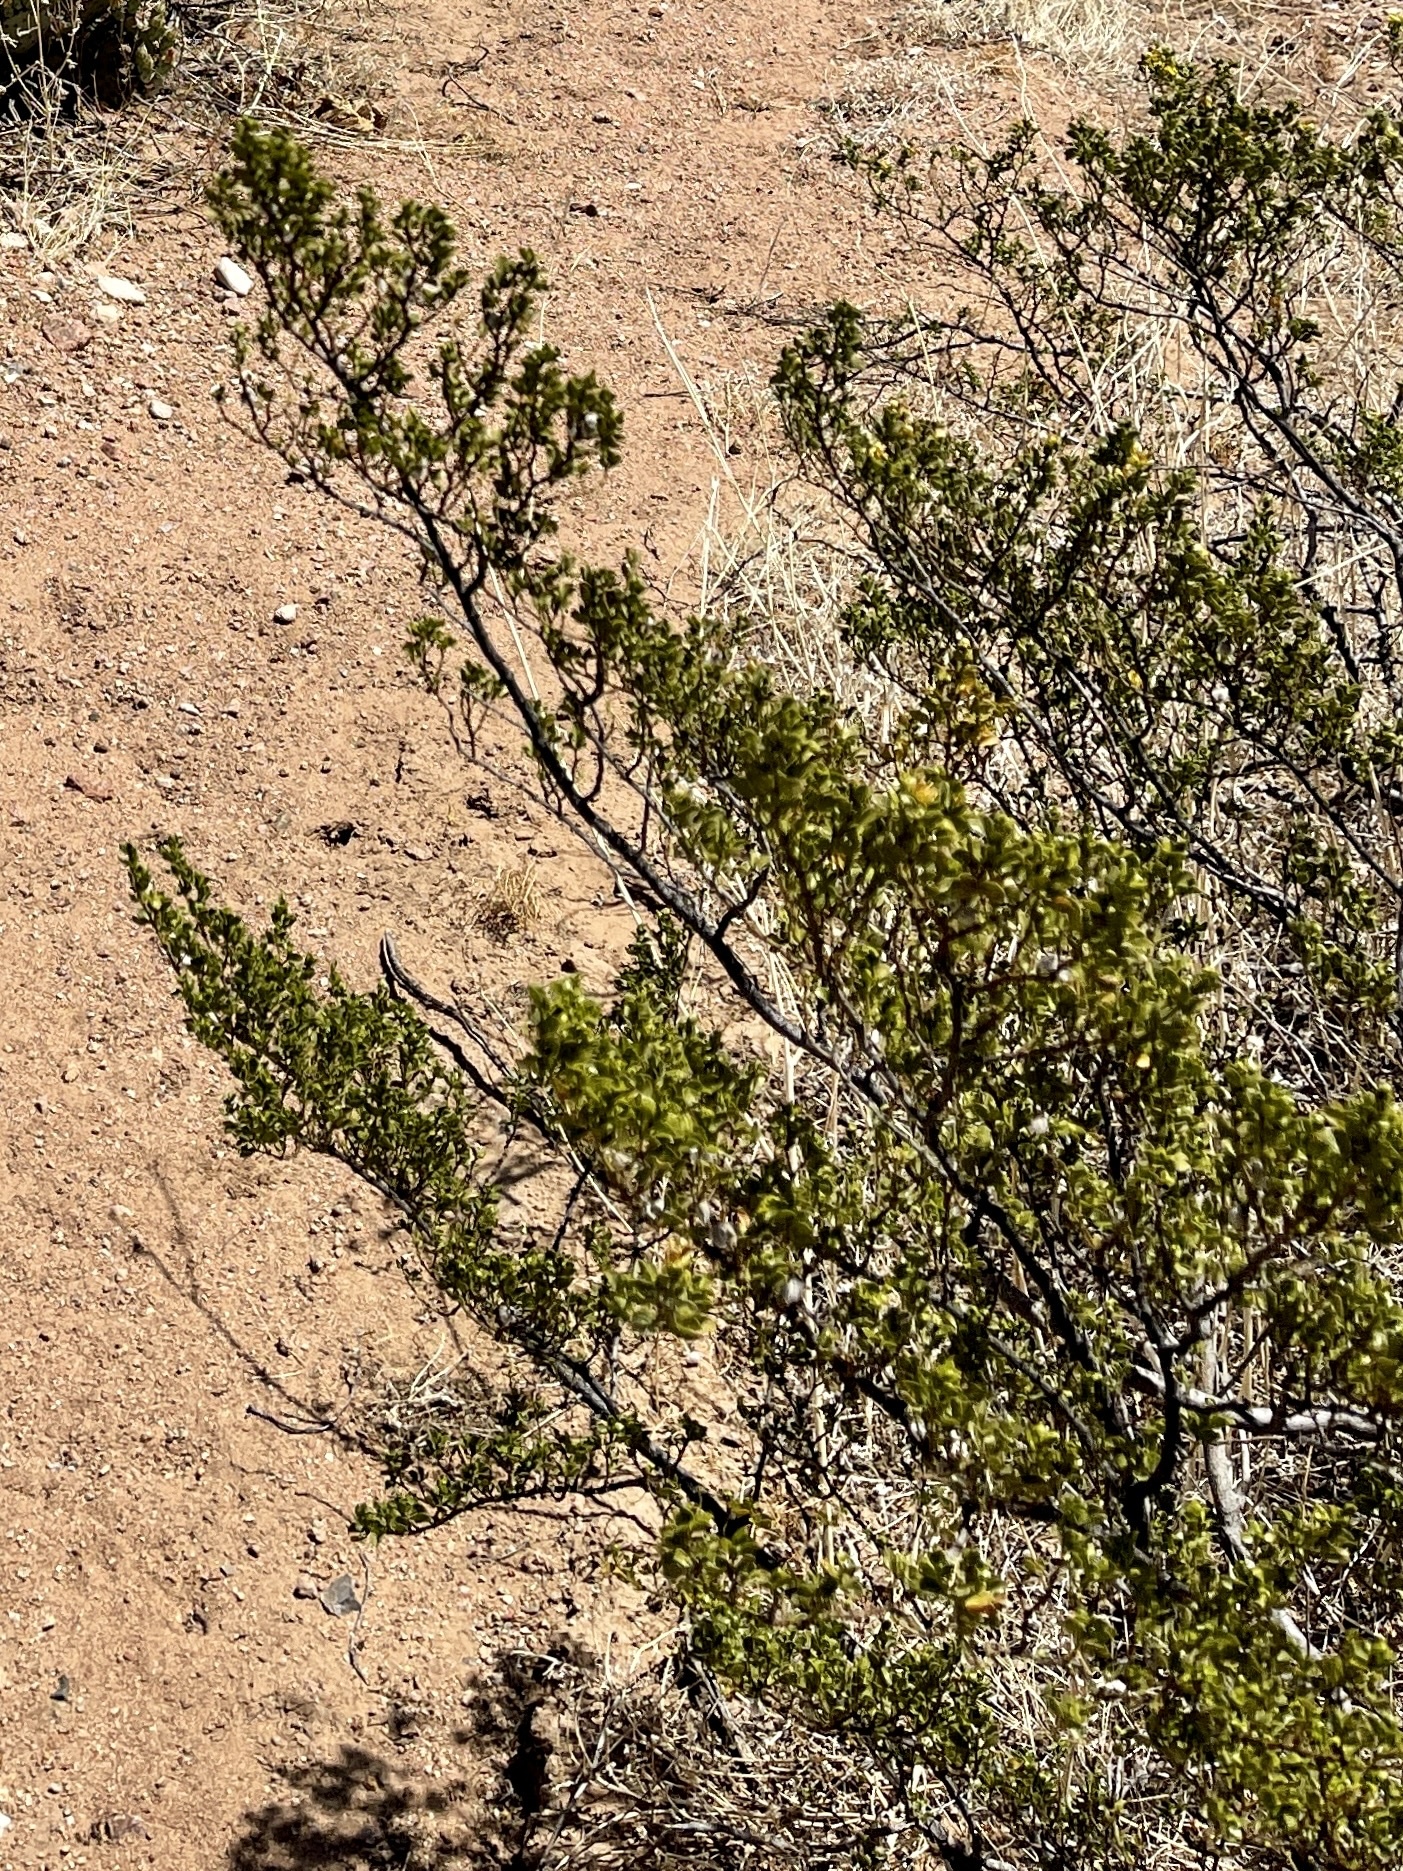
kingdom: Plantae
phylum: Tracheophyta
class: Magnoliopsida
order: Zygophyllales
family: Zygophyllaceae
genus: Larrea
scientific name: Larrea tridentata
